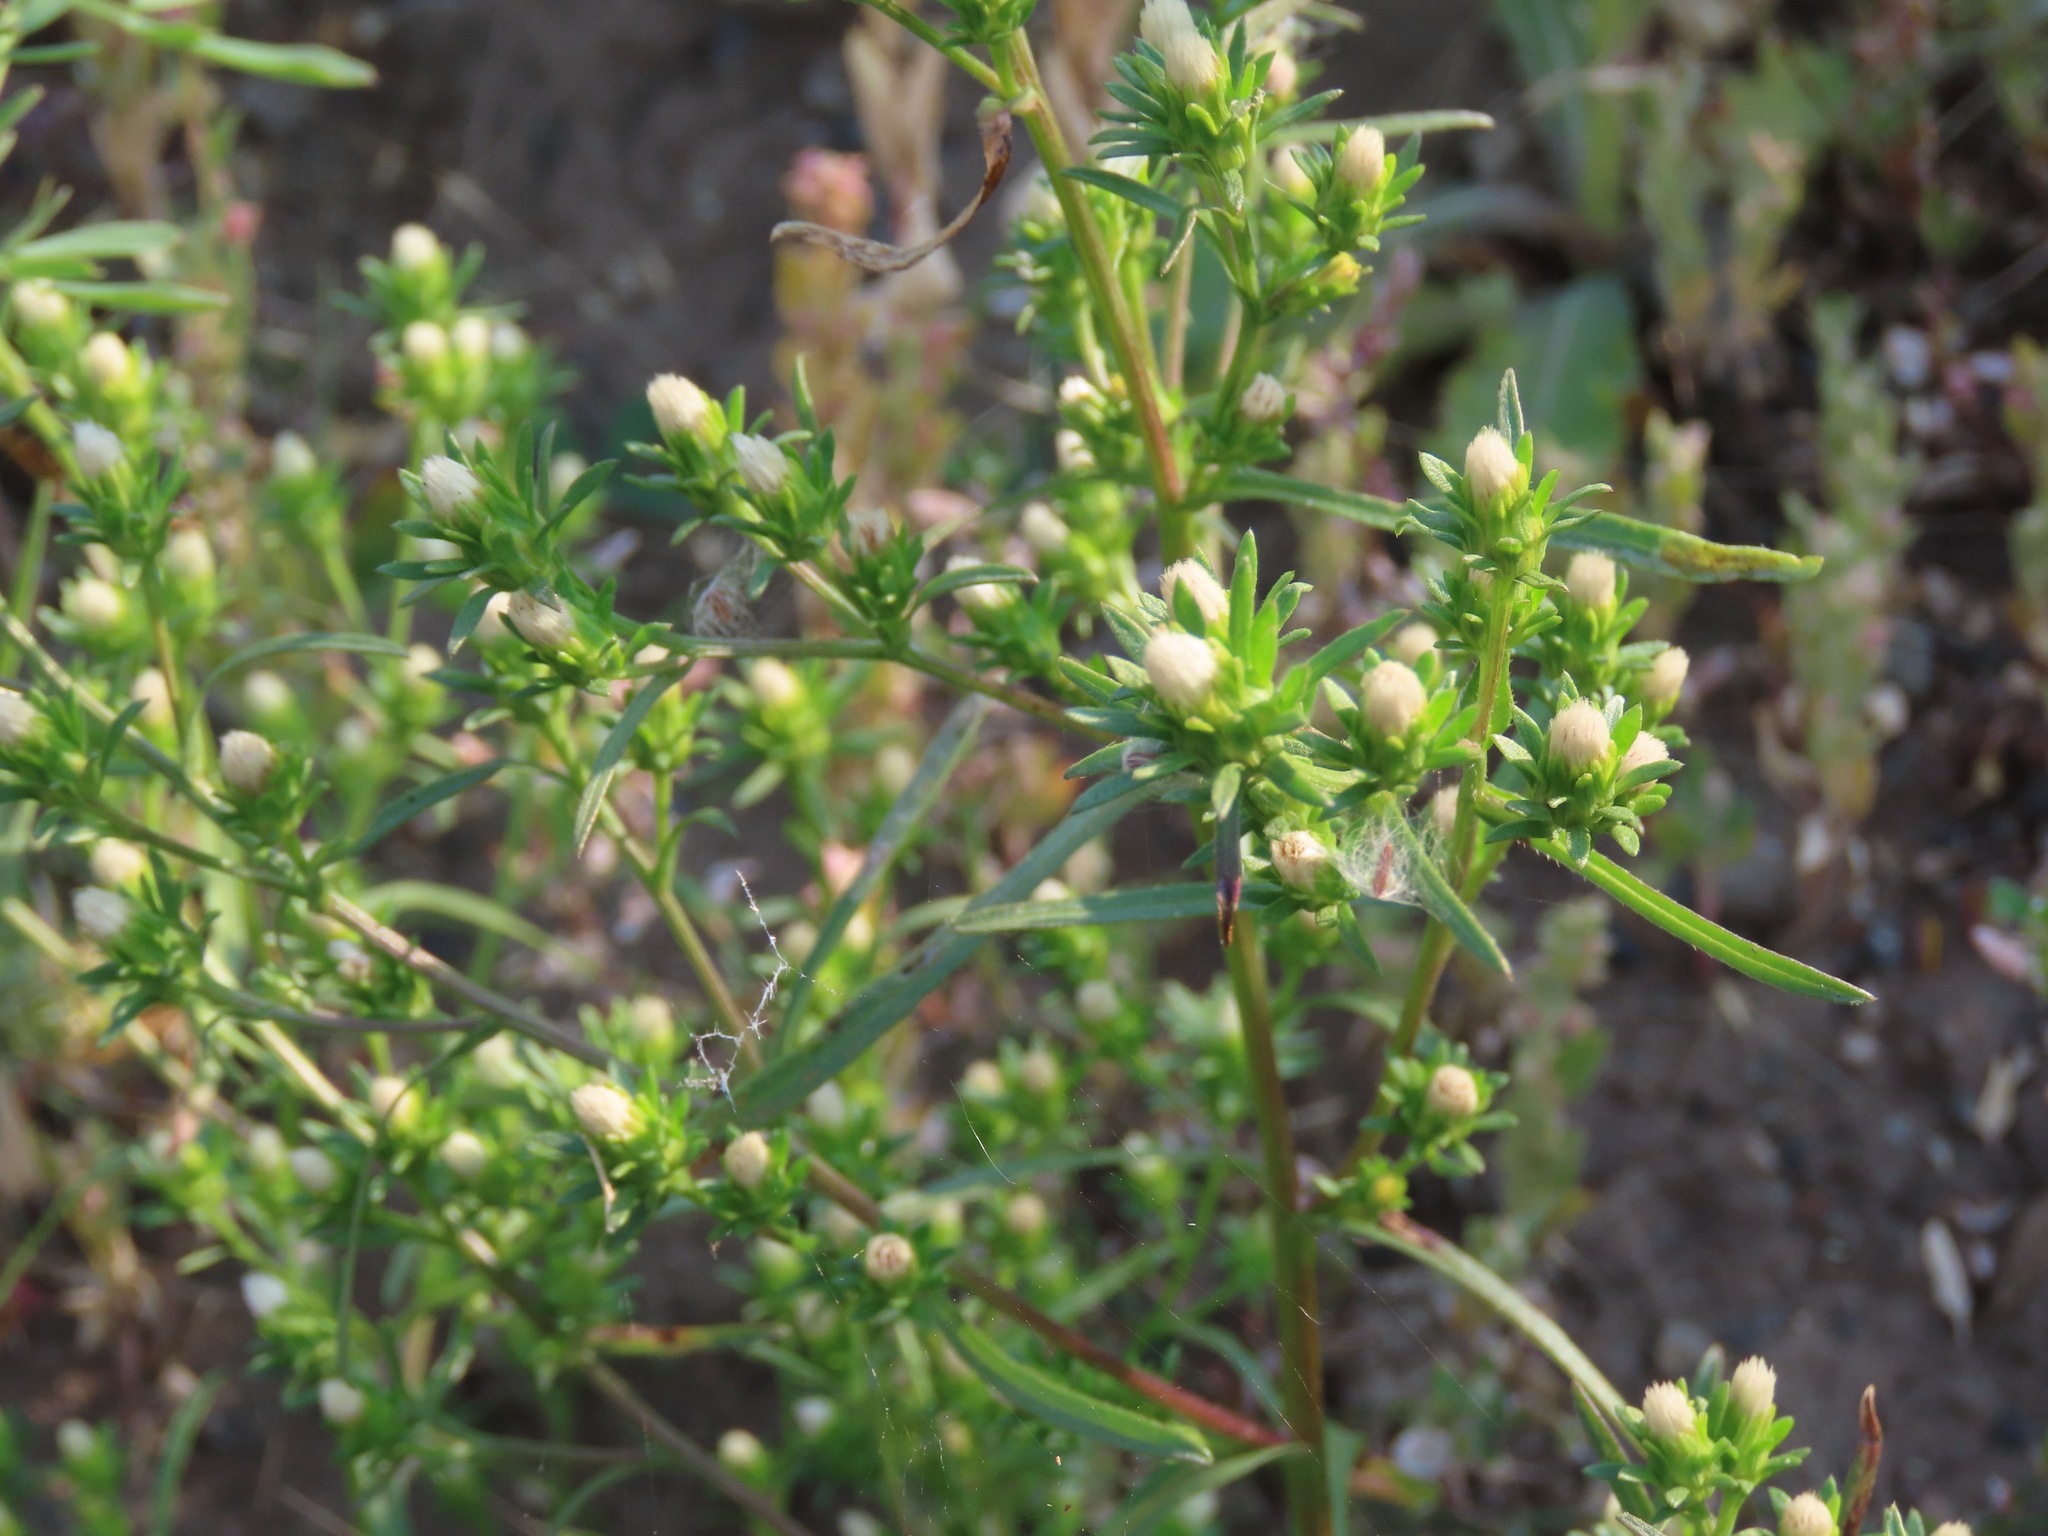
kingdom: Plantae
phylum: Tracheophyta
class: Magnoliopsida
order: Asterales
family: Asteraceae
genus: Symphyotrichum
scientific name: Symphyotrichum ericoides
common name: Heath aster
